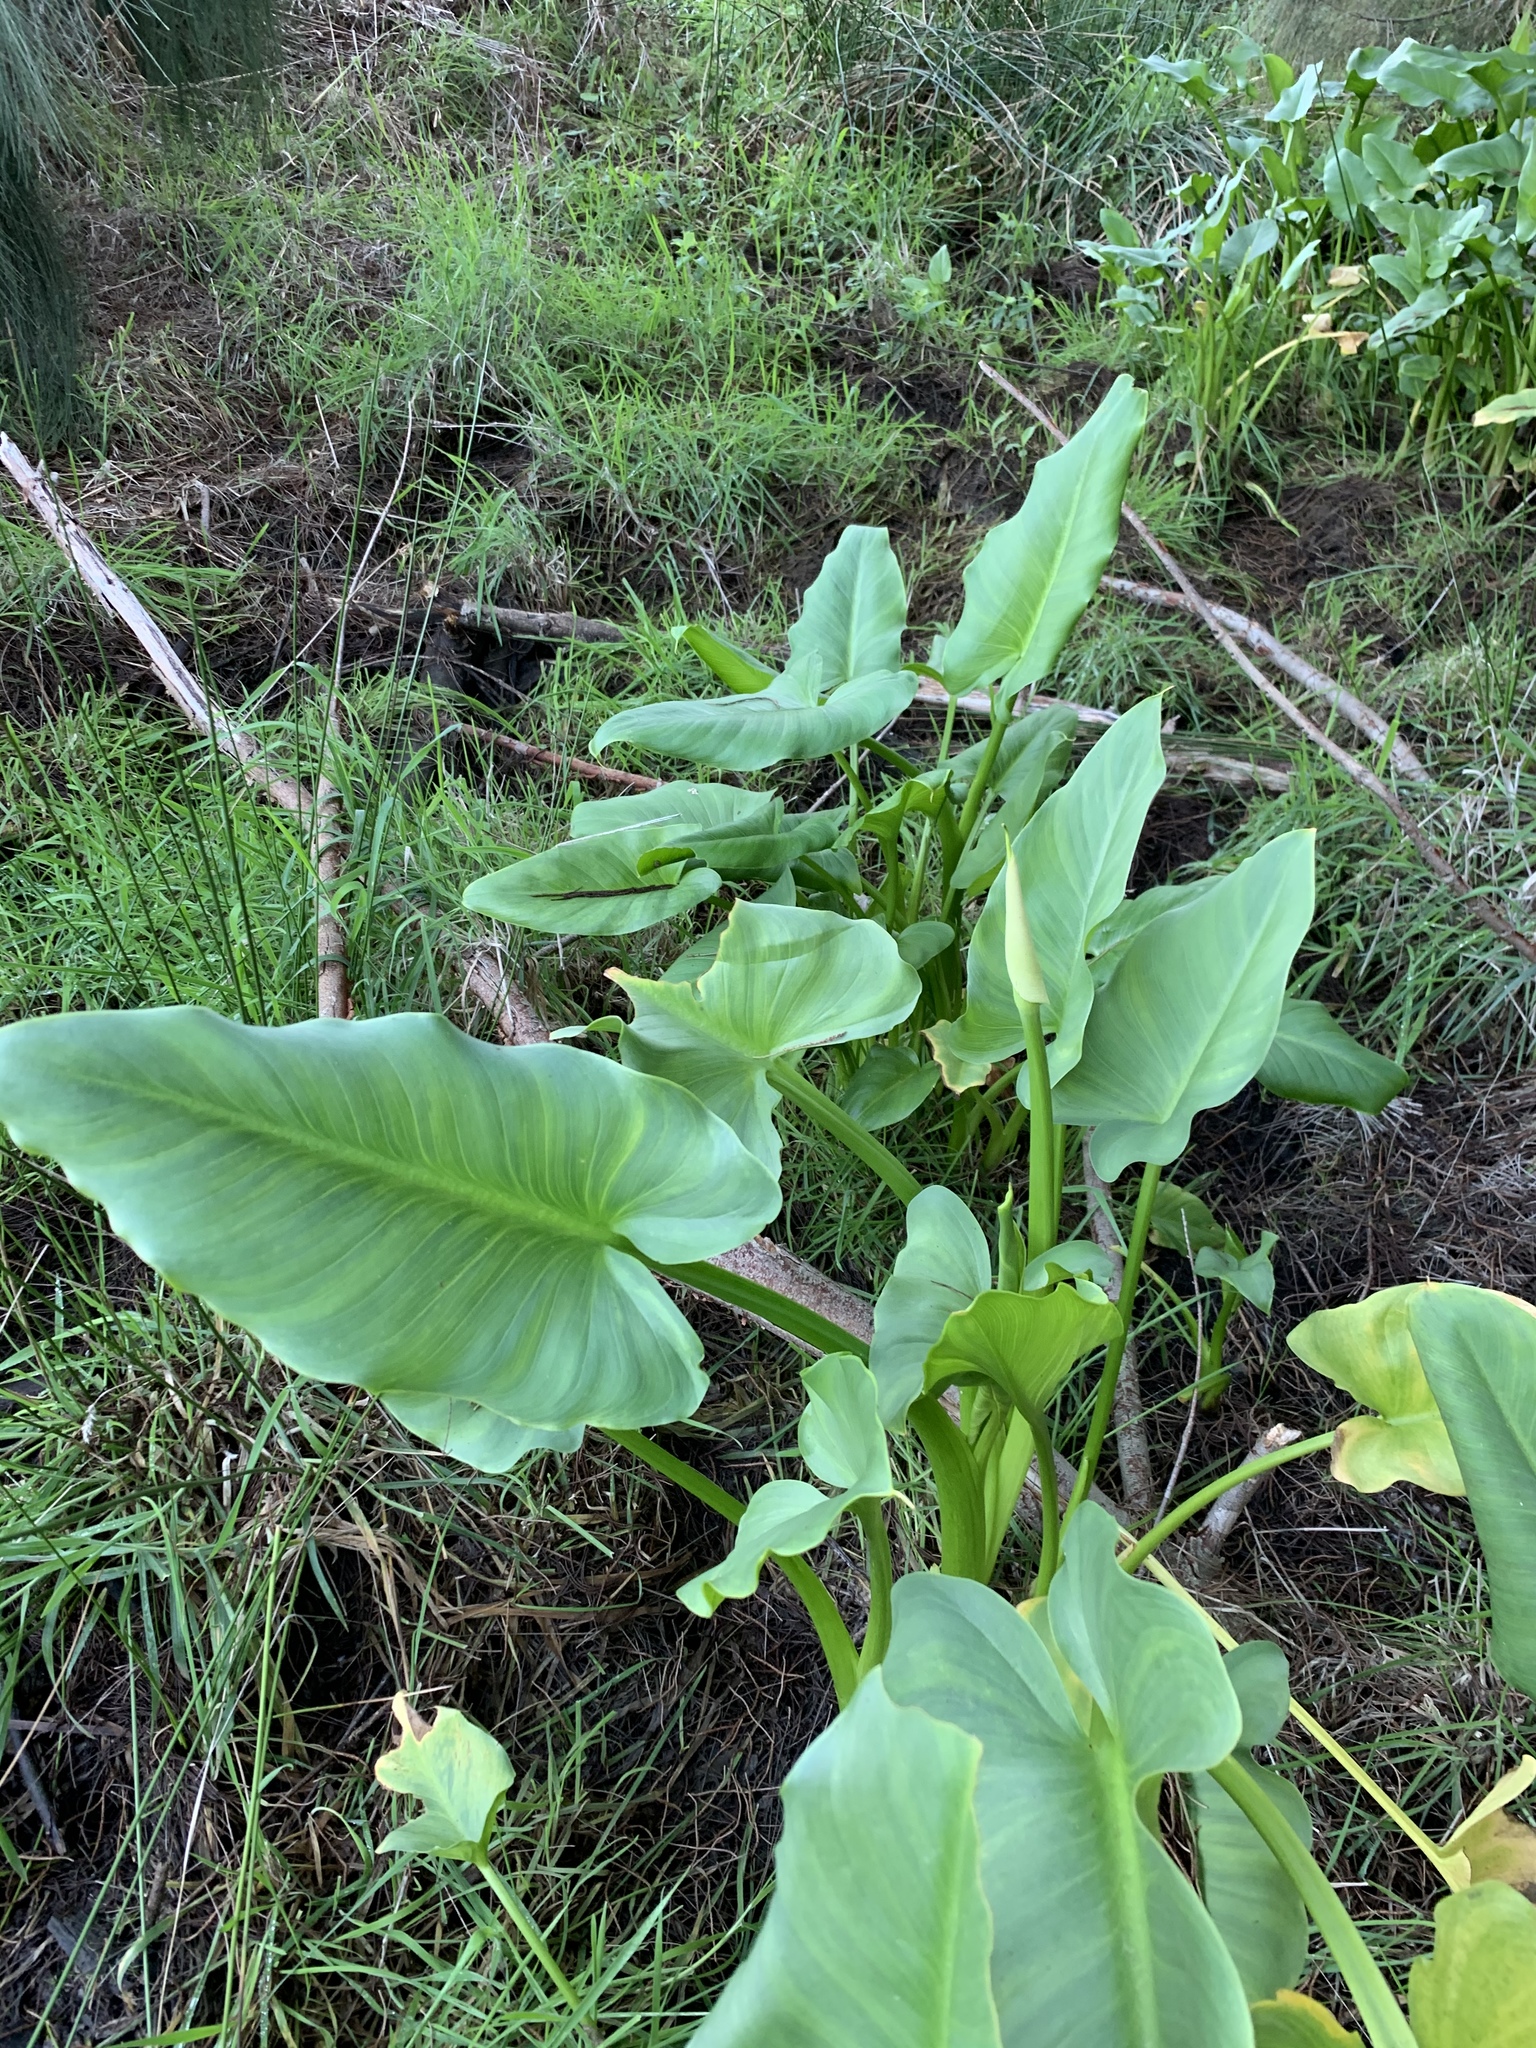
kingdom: Plantae
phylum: Tracheophyta
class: Liliopsida
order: Alismatales
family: Araceae
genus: Zantedeschia
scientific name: Zantedeschia aethiopica
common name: Altar-lily
